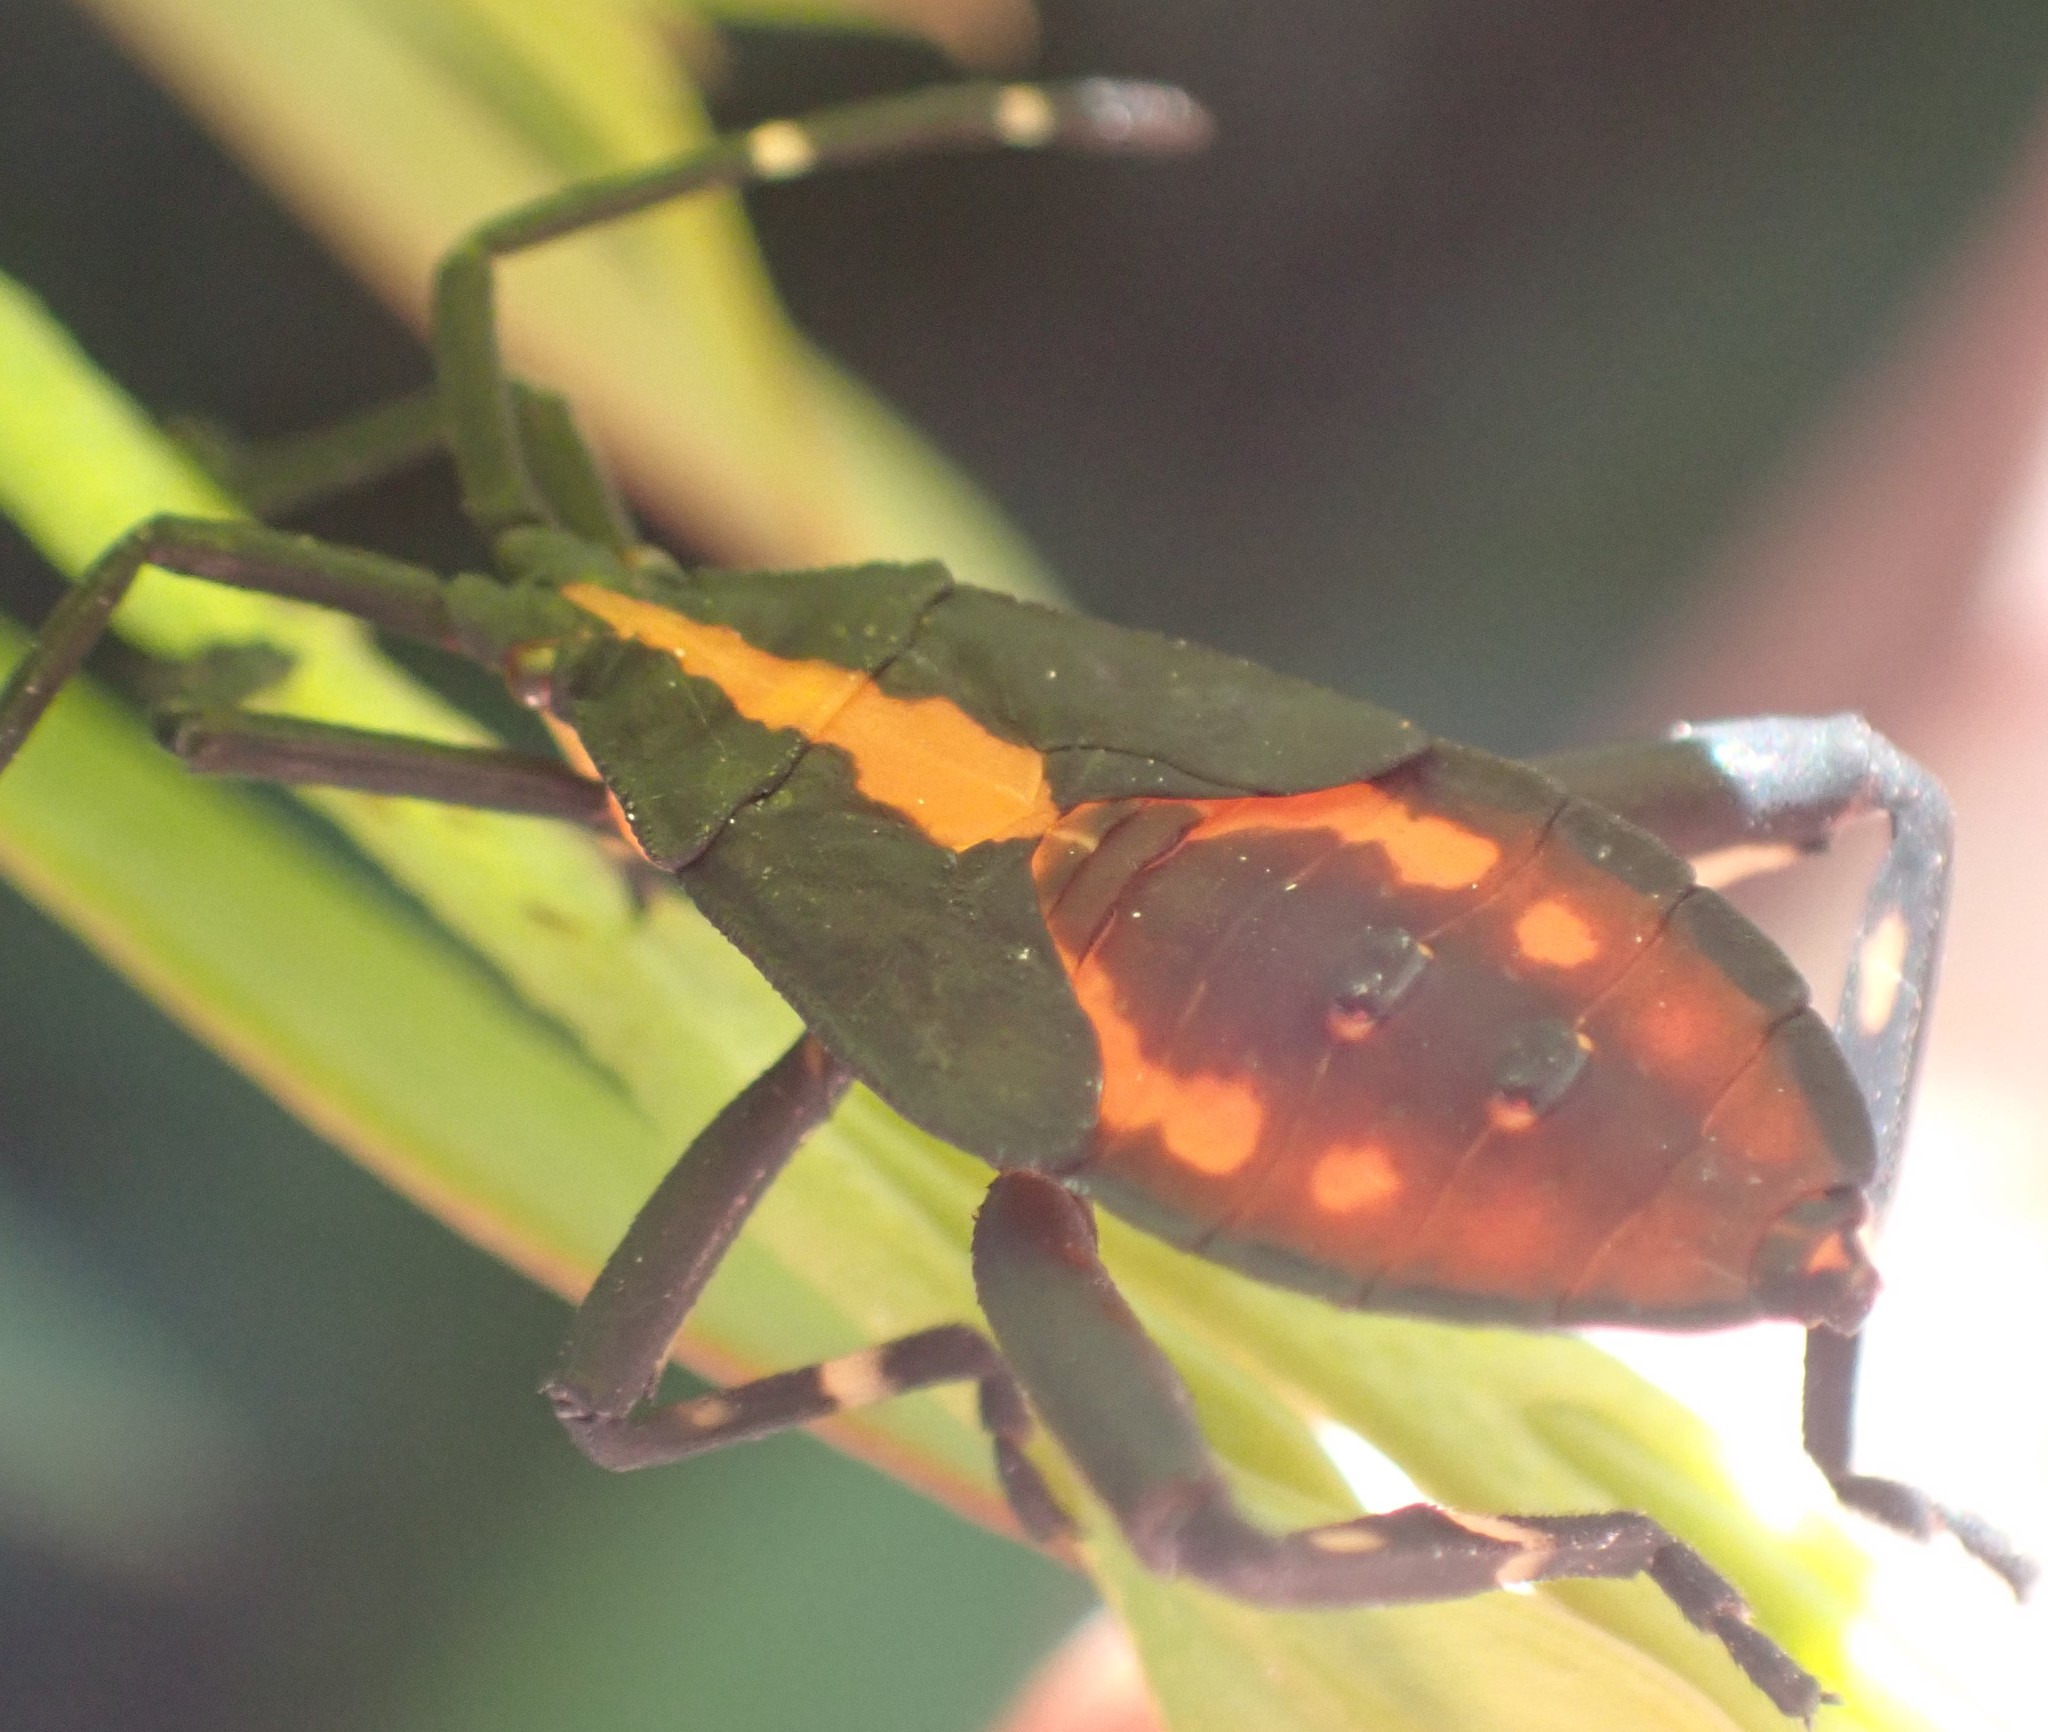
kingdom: Animalia
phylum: Arthropoda
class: Insecta
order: Hemiptera
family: Coreidae
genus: Amorbus
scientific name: Amorbus obscuricornis
